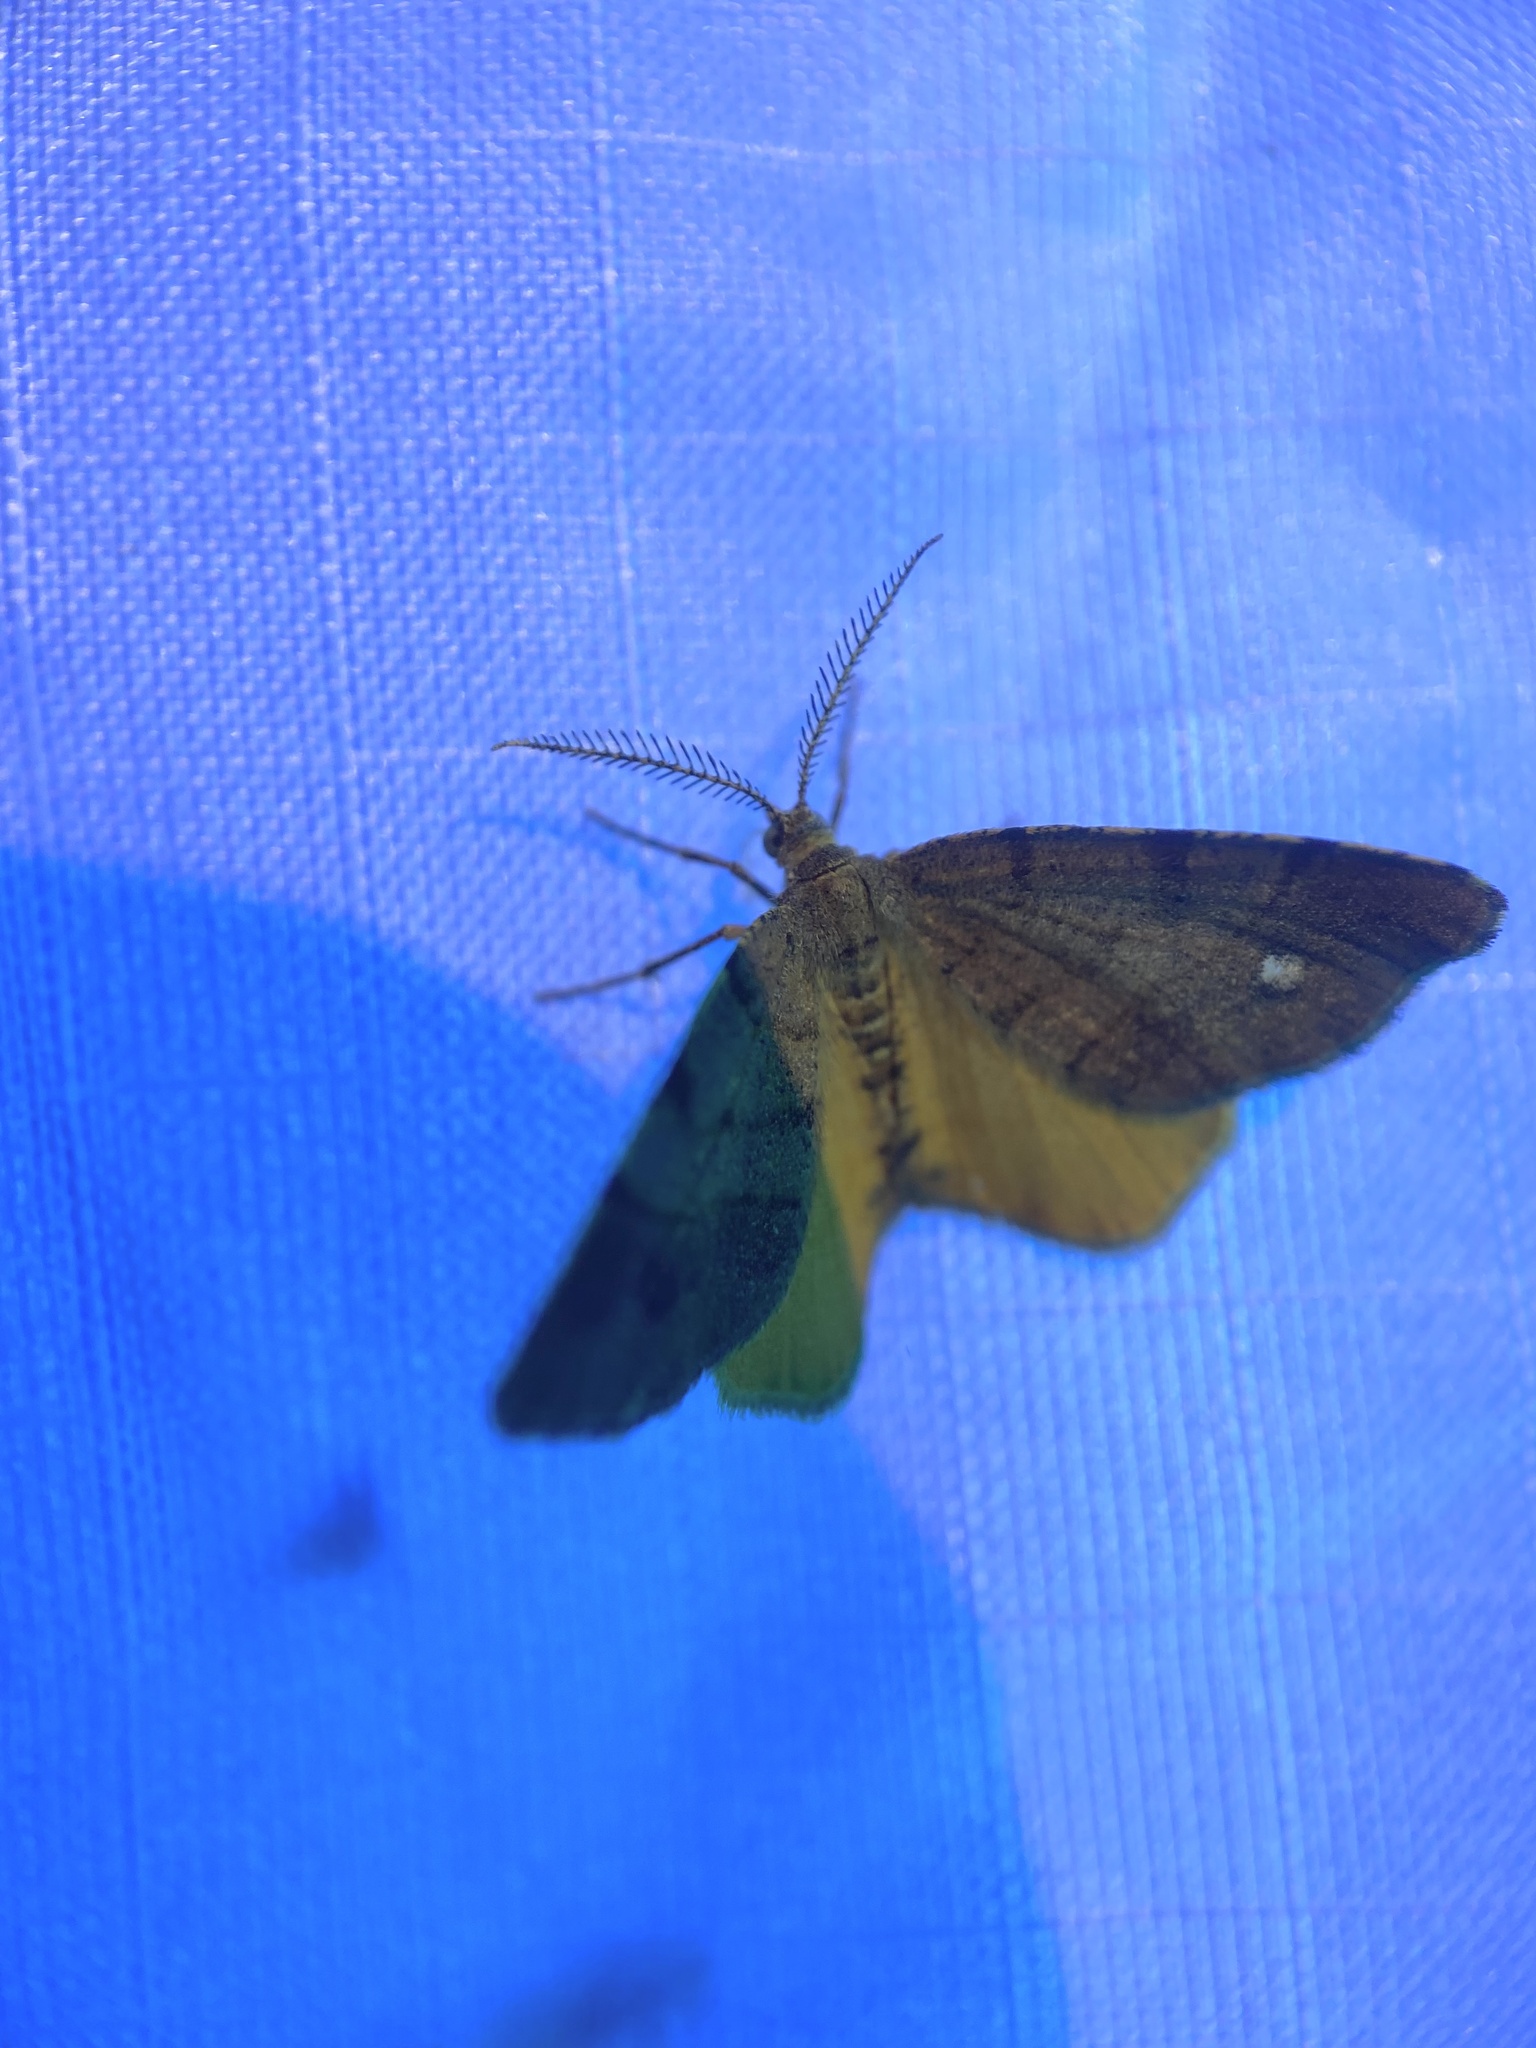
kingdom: Animalia
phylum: Arthropoda
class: Insecta
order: Lepidoptera
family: Geometridae
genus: Mellilla
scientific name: Mellilla xanthometata
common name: Orange wing moth
